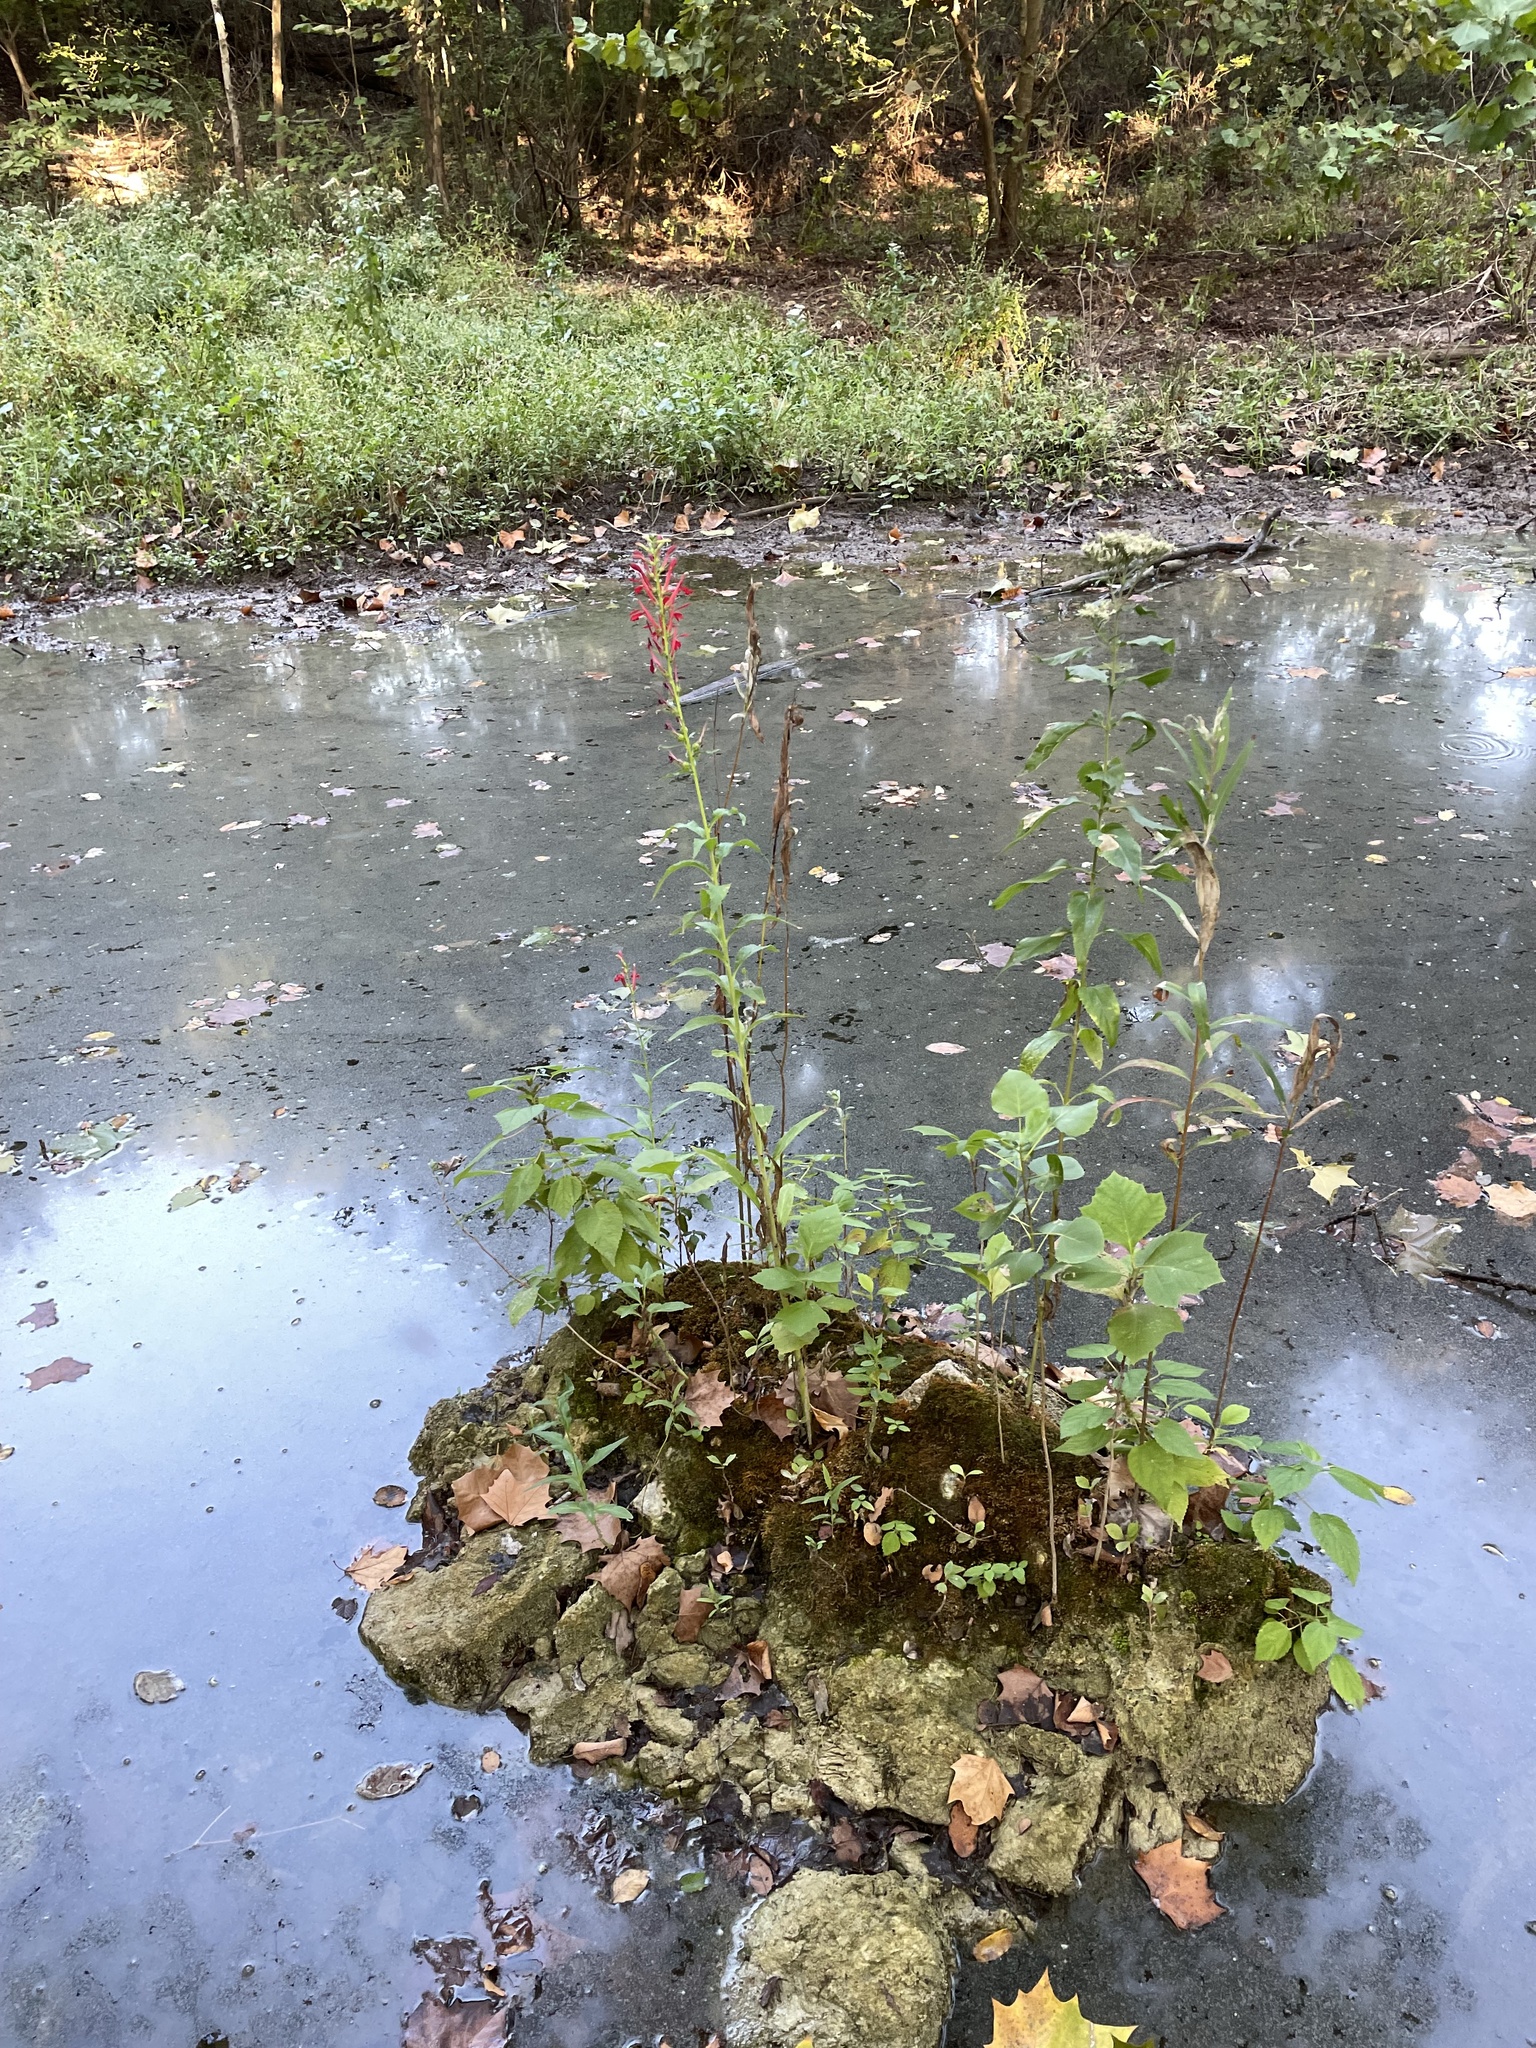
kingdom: Plantae
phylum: Tracheophyta
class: Magnoliopsida
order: Asterales
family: Campanulaceae
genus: Lobelia
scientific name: Lobelia cardinalis
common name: Cardinal flower
